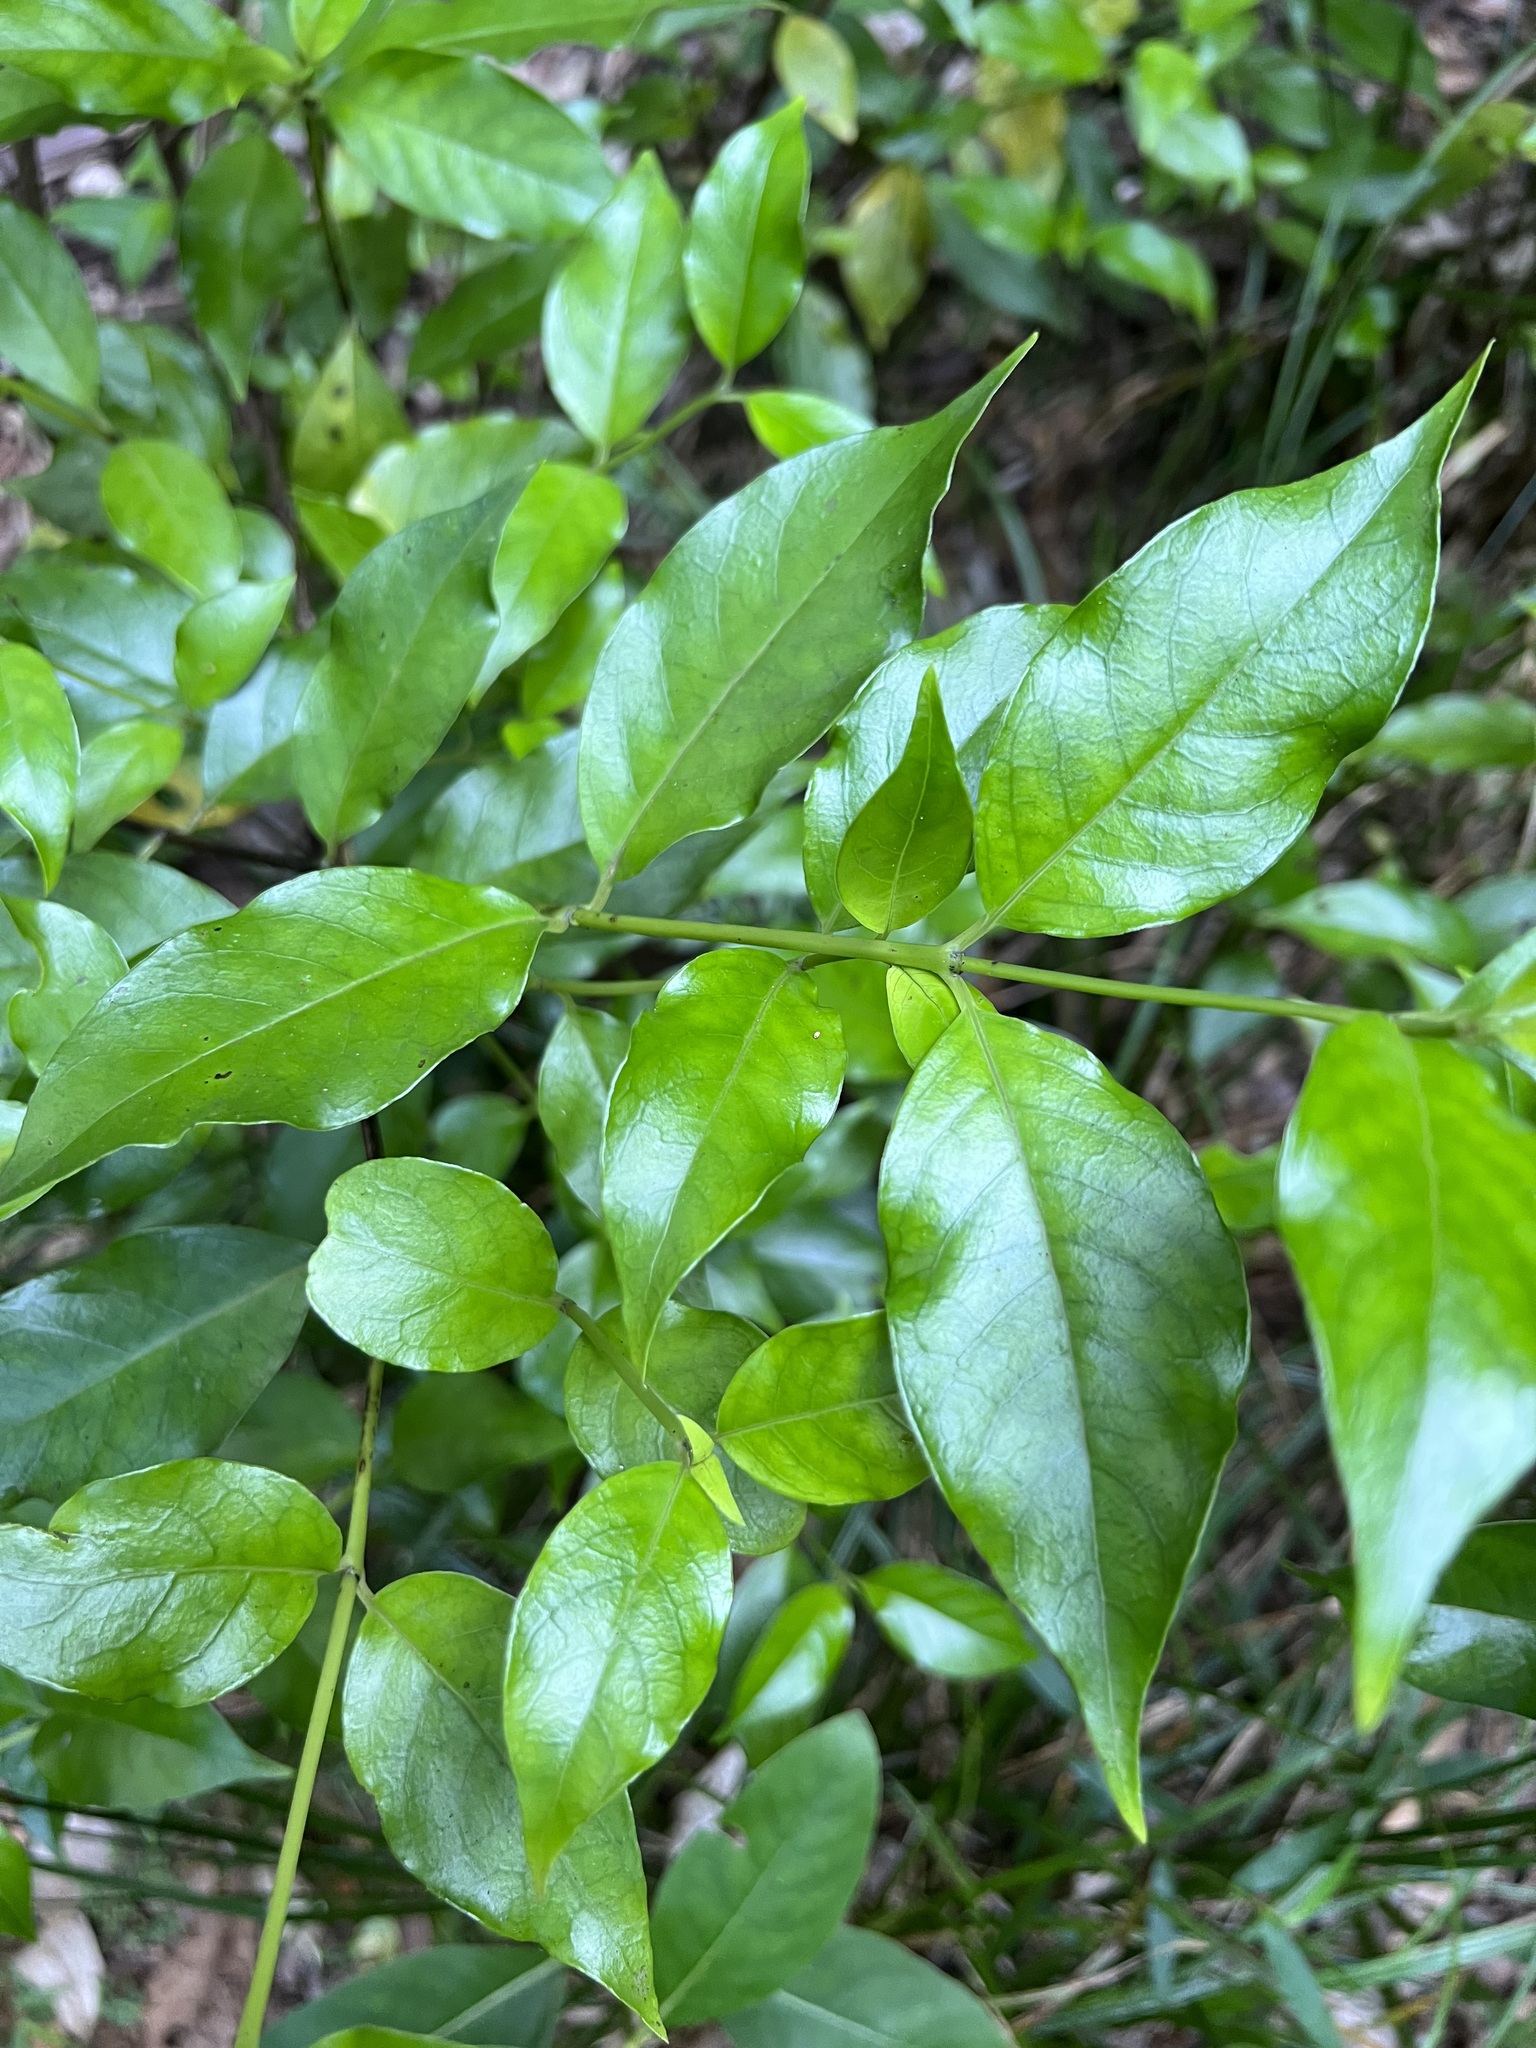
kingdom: Plantae
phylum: Tracheophyta
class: Magnoliopsida
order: Gentianales
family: Loganiaceae
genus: Geniostoma
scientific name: Geniostoma ligustrifolium
